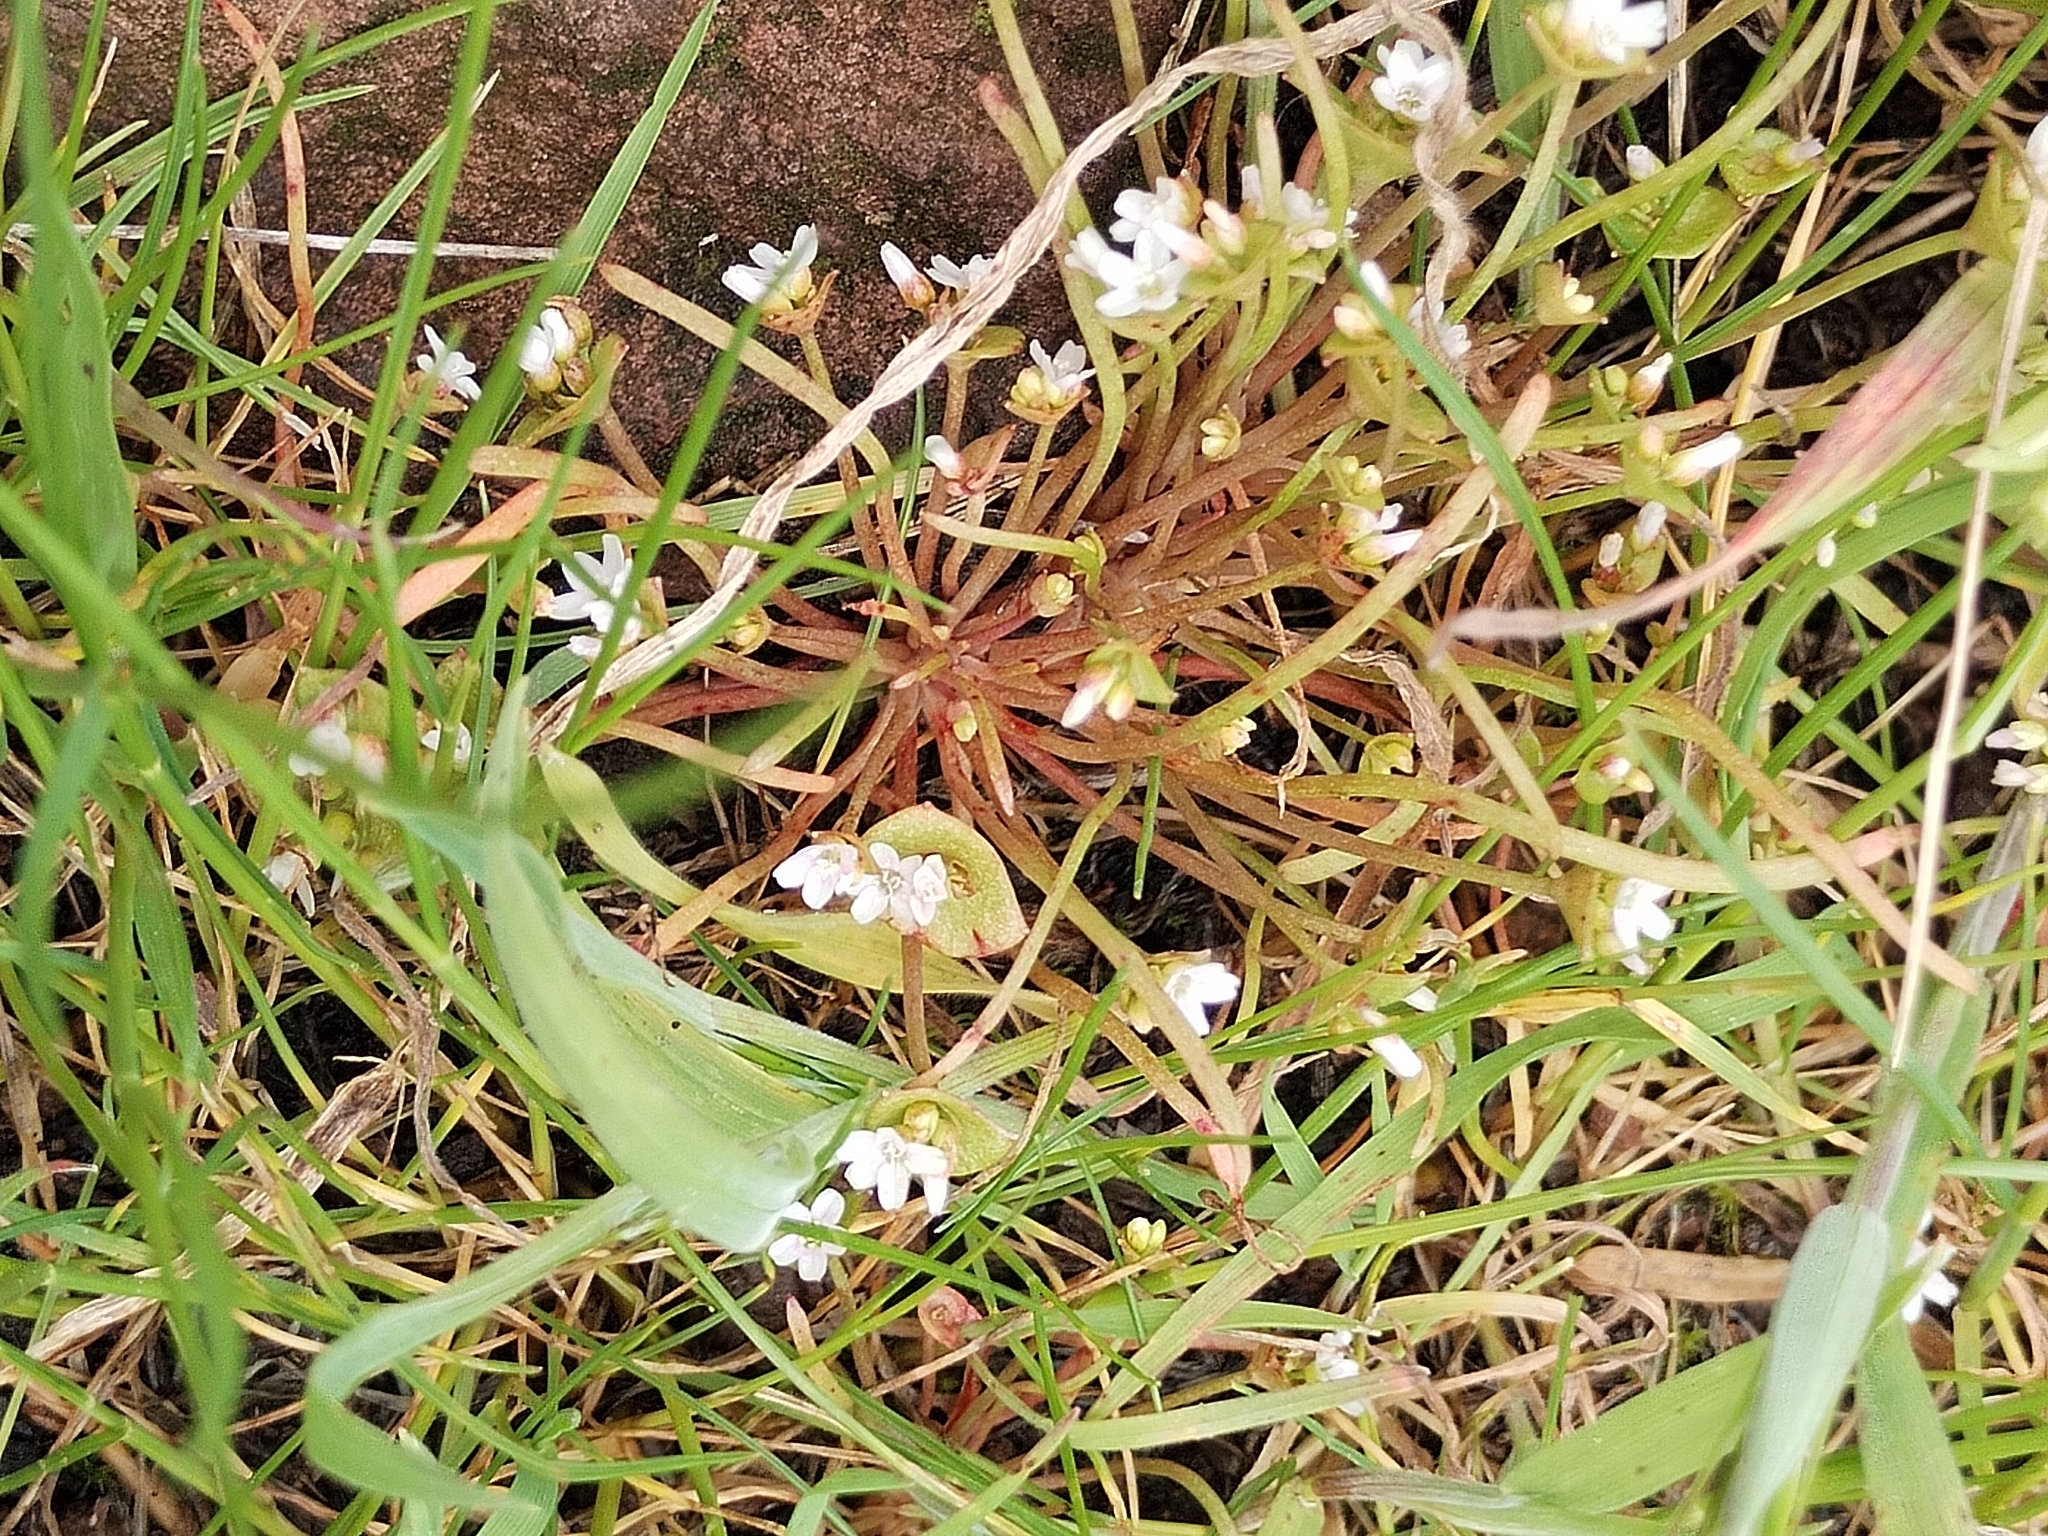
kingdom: Plantae
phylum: Tracheophyta
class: Magnoliopsida
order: Caryophyllales
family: Montiaceae
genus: Claytonia
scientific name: Claytonia parviflora
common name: Indian-lettuce
